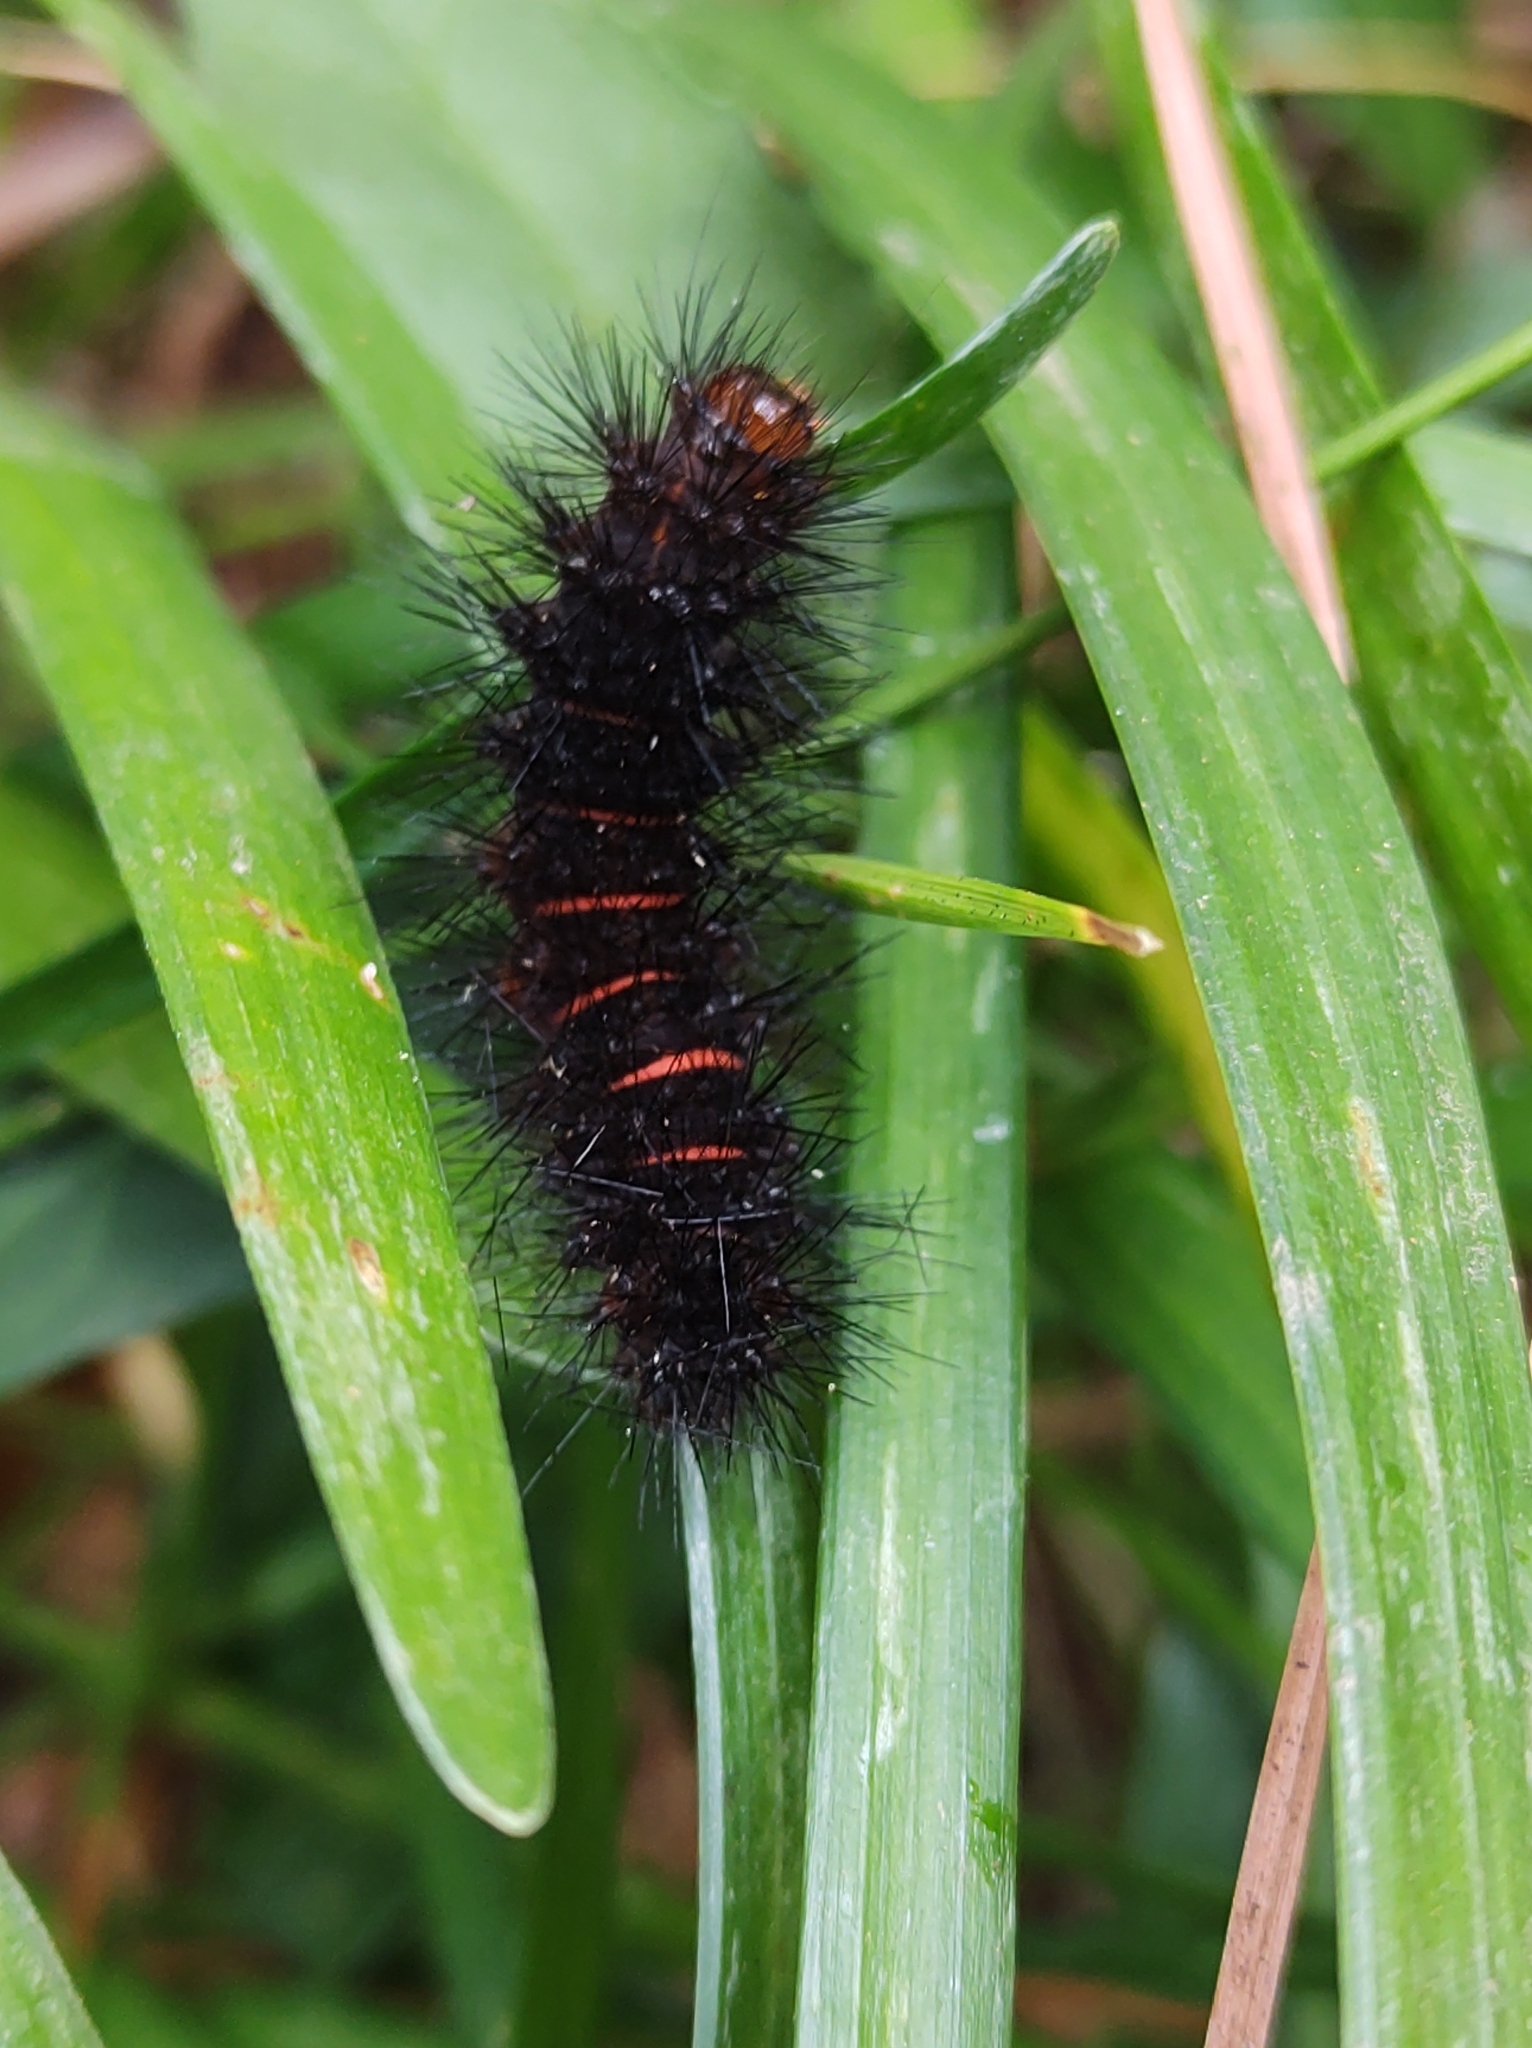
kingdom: Animalia
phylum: Arthropoda
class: Insecta
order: Lepidoptera
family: Erebidae
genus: Hypercompe
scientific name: Hypercompe scribonia
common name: Giant leopard moth
